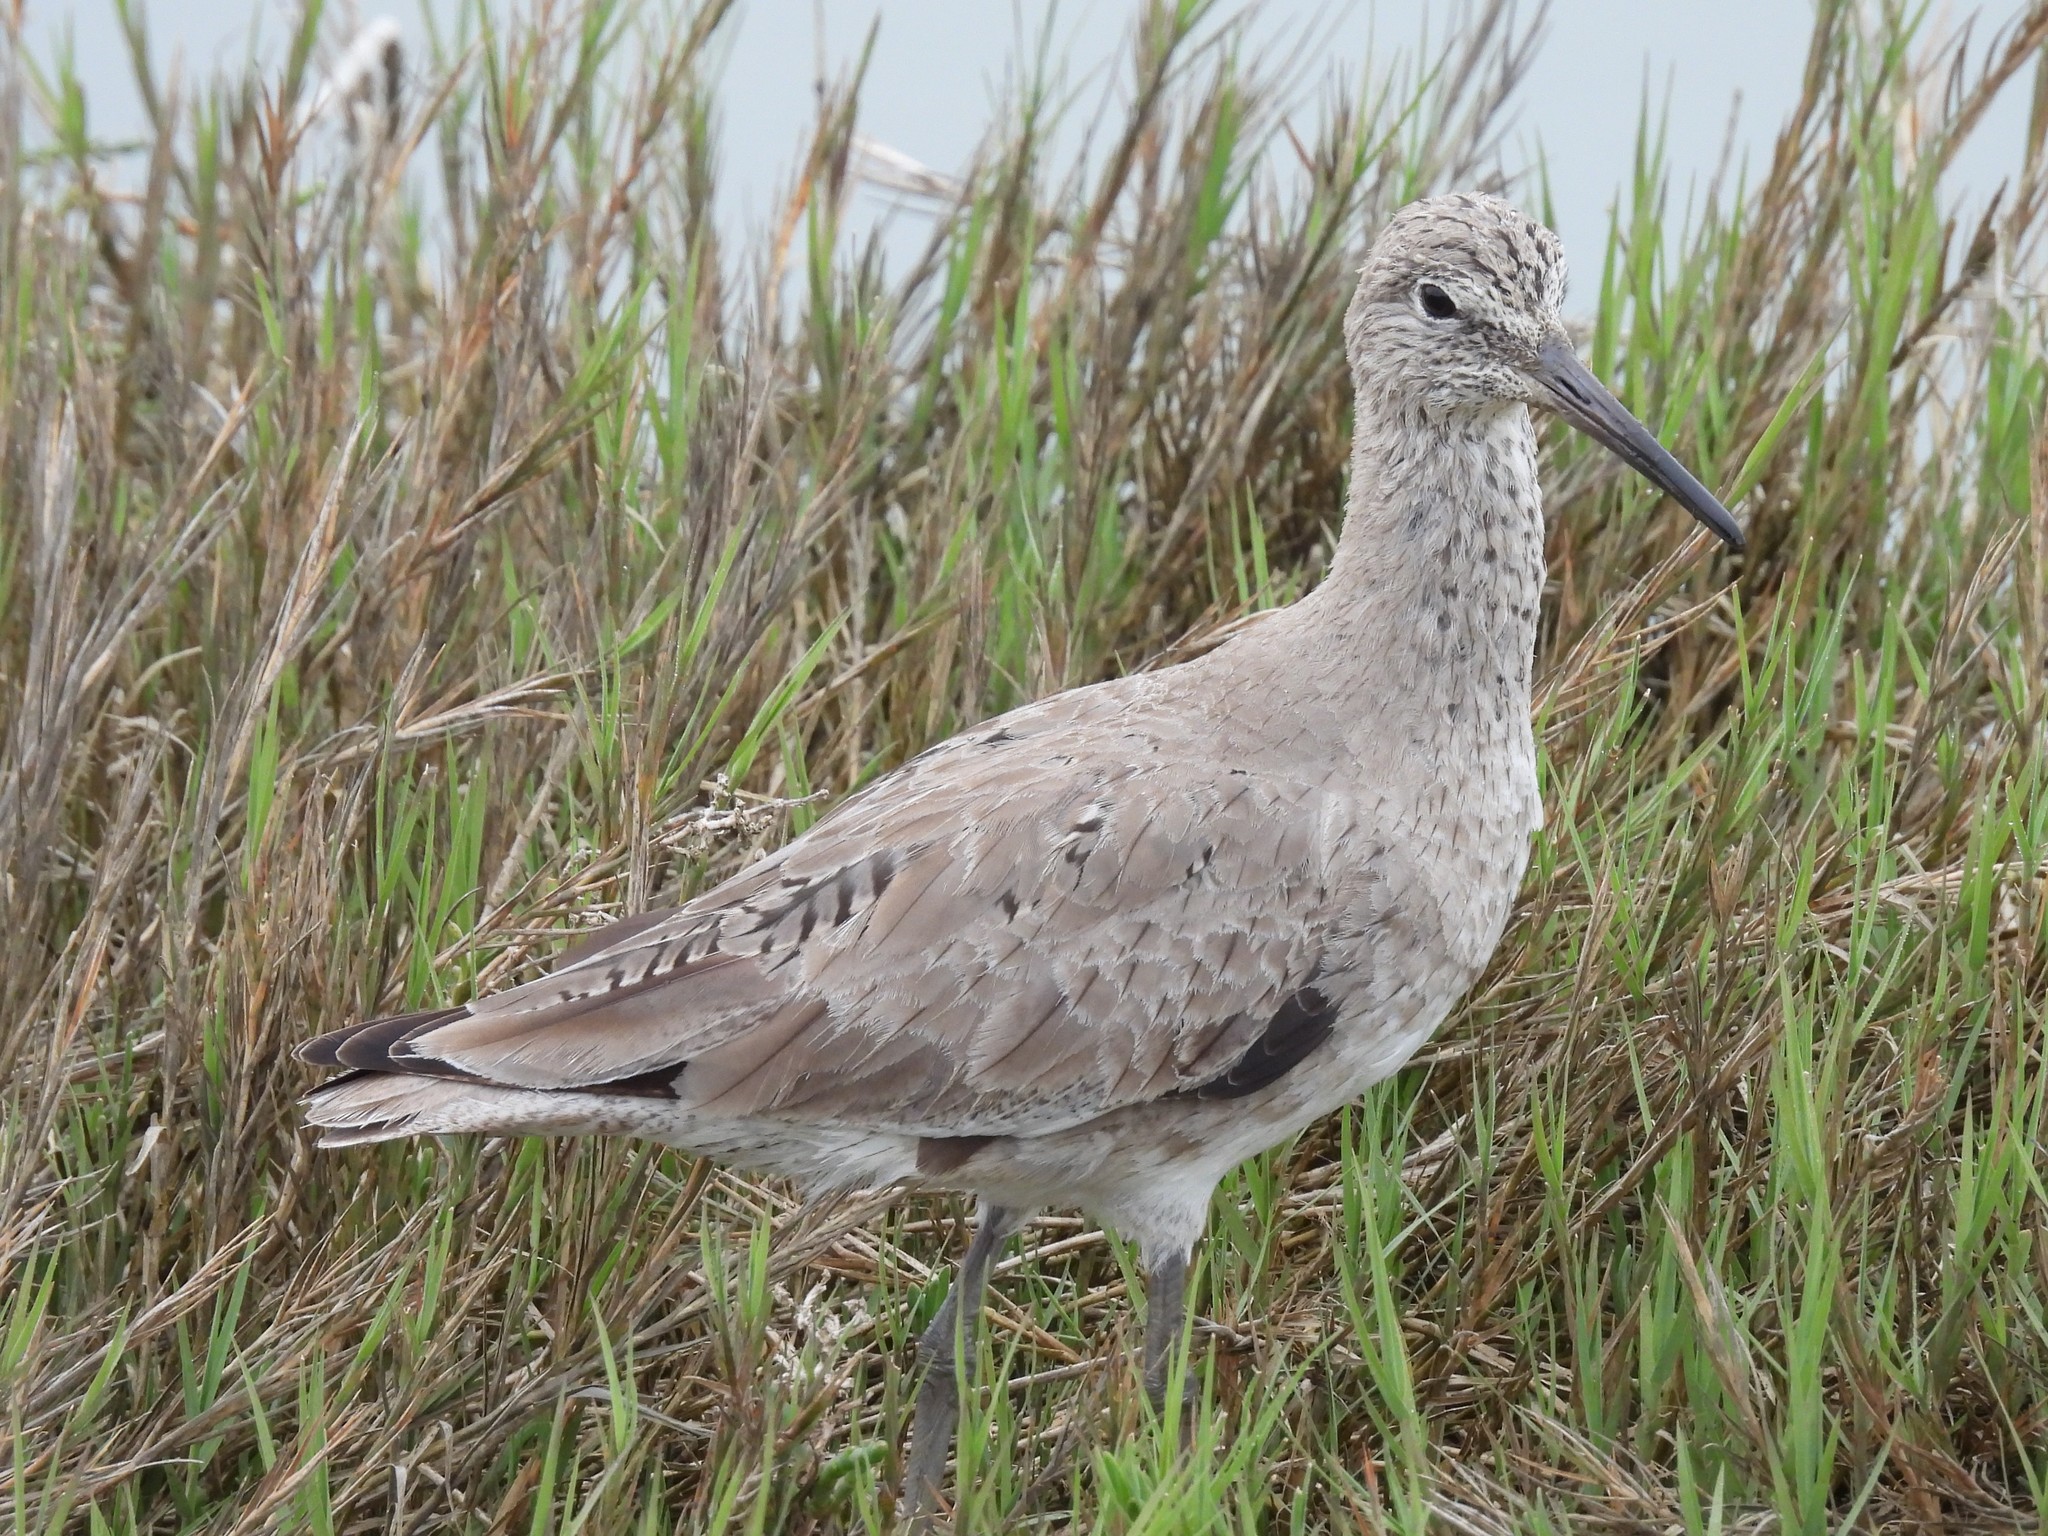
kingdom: Animalia
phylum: Chordata
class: Aves
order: Charadriiformes
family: Scolopacidae
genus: Tringa
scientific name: Tringa semipalmata
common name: Willet
